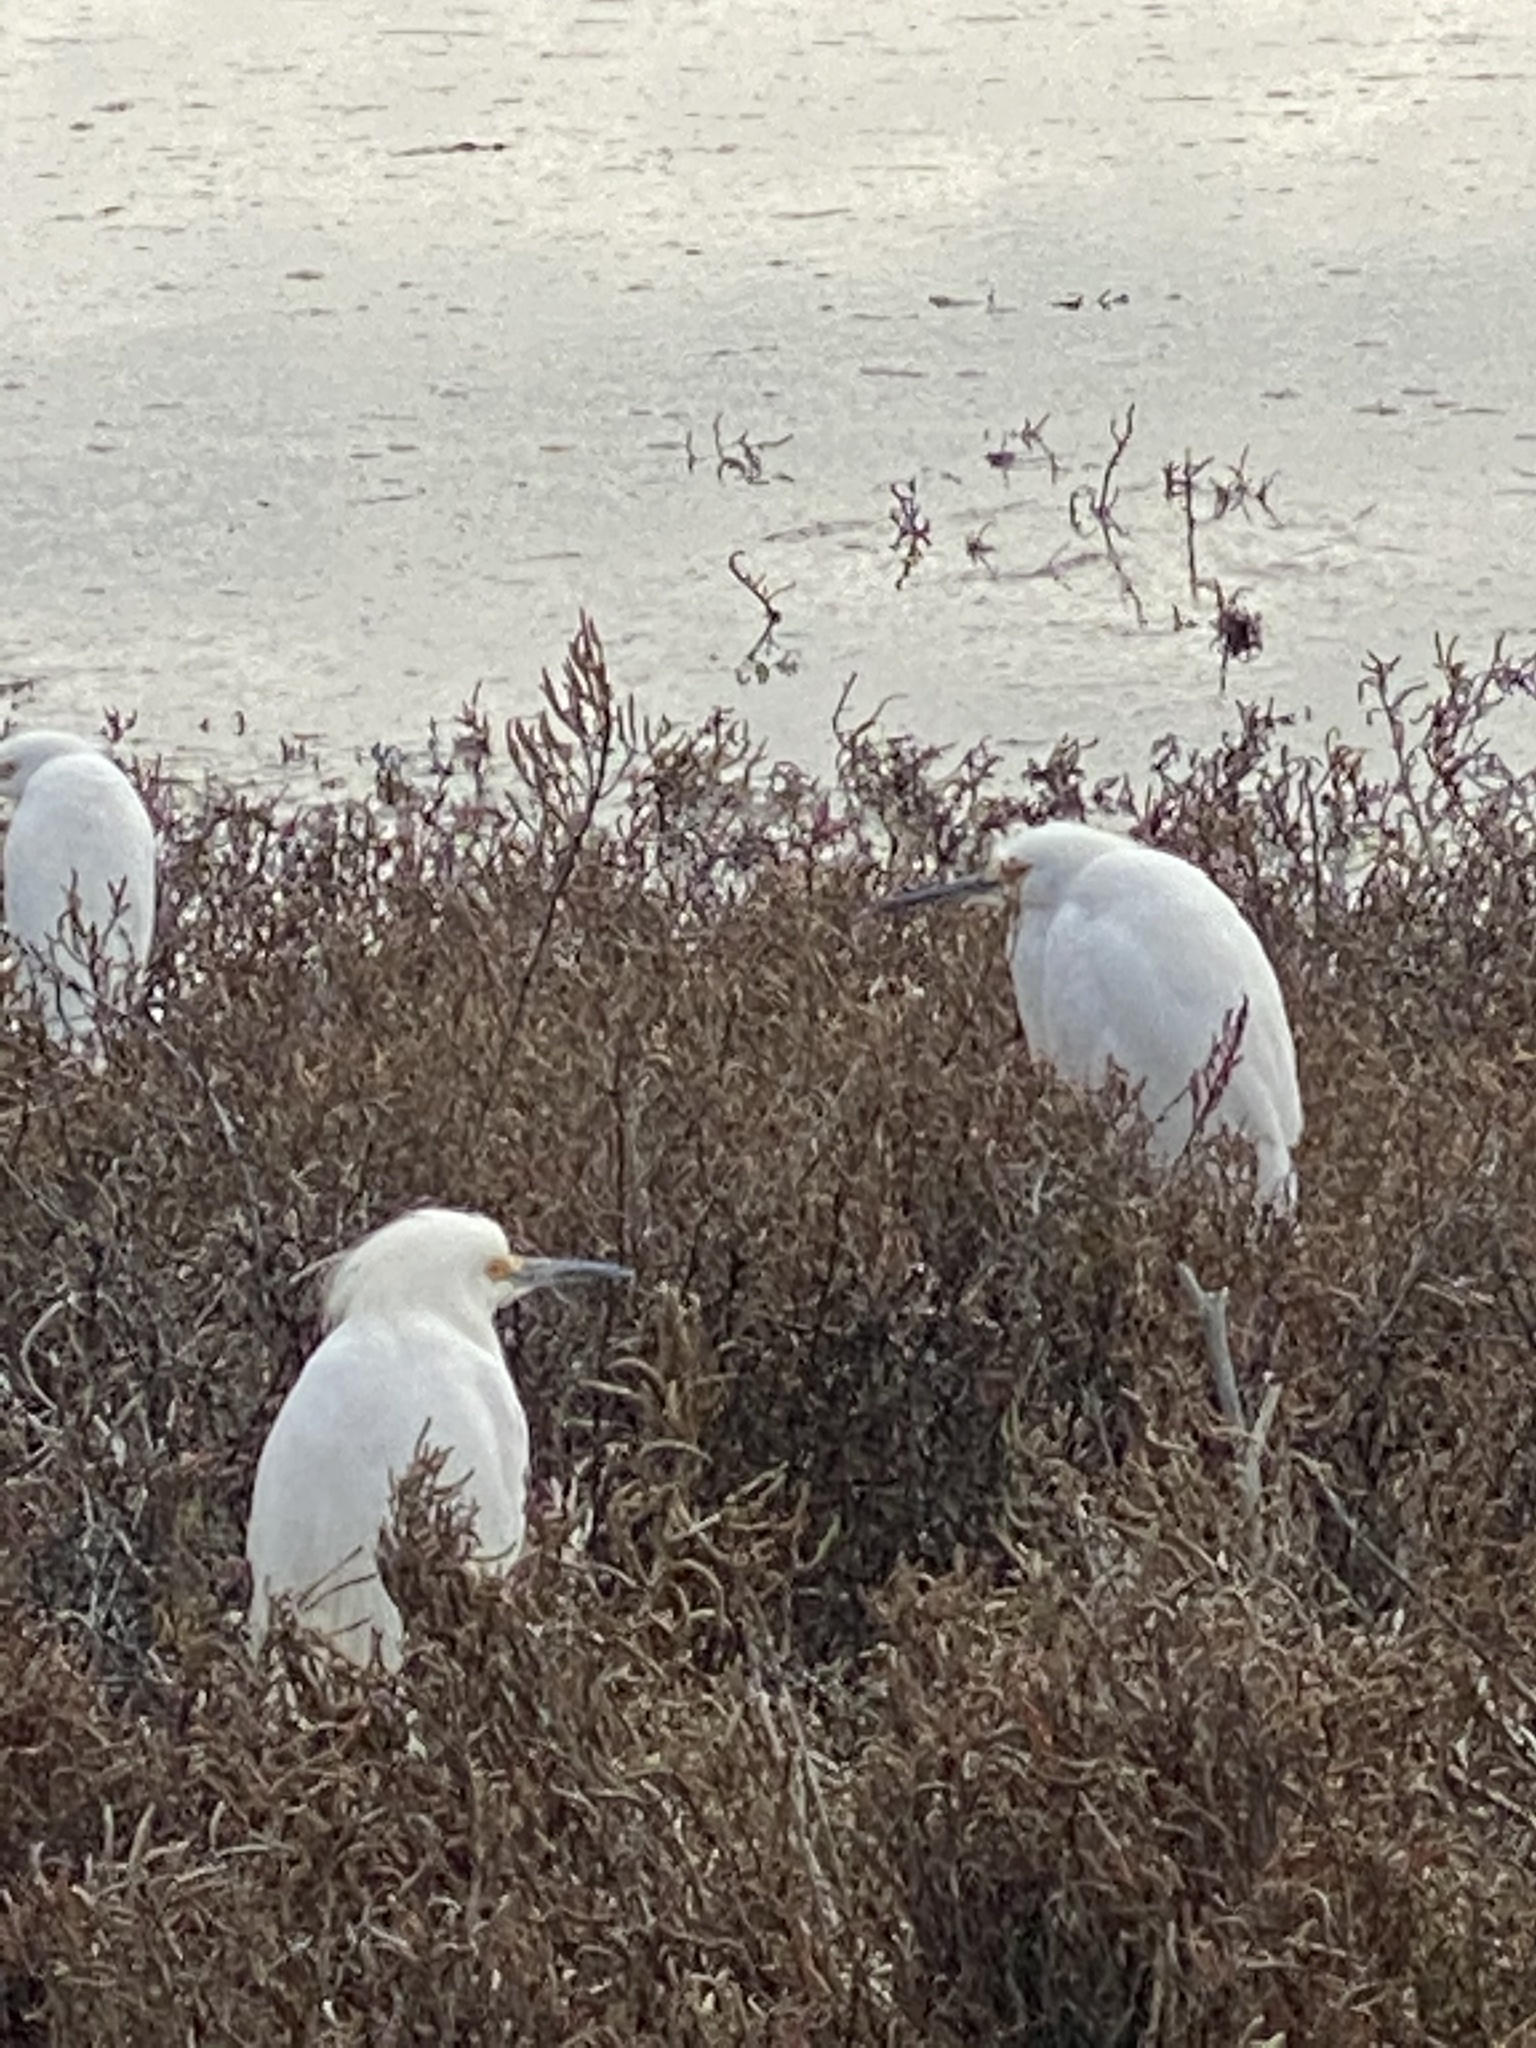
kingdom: Animalia
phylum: Chordata
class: Aves
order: Pelecaniformes
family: Ardeidae
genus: Egretta
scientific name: Egretta thula
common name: Snowy egret
